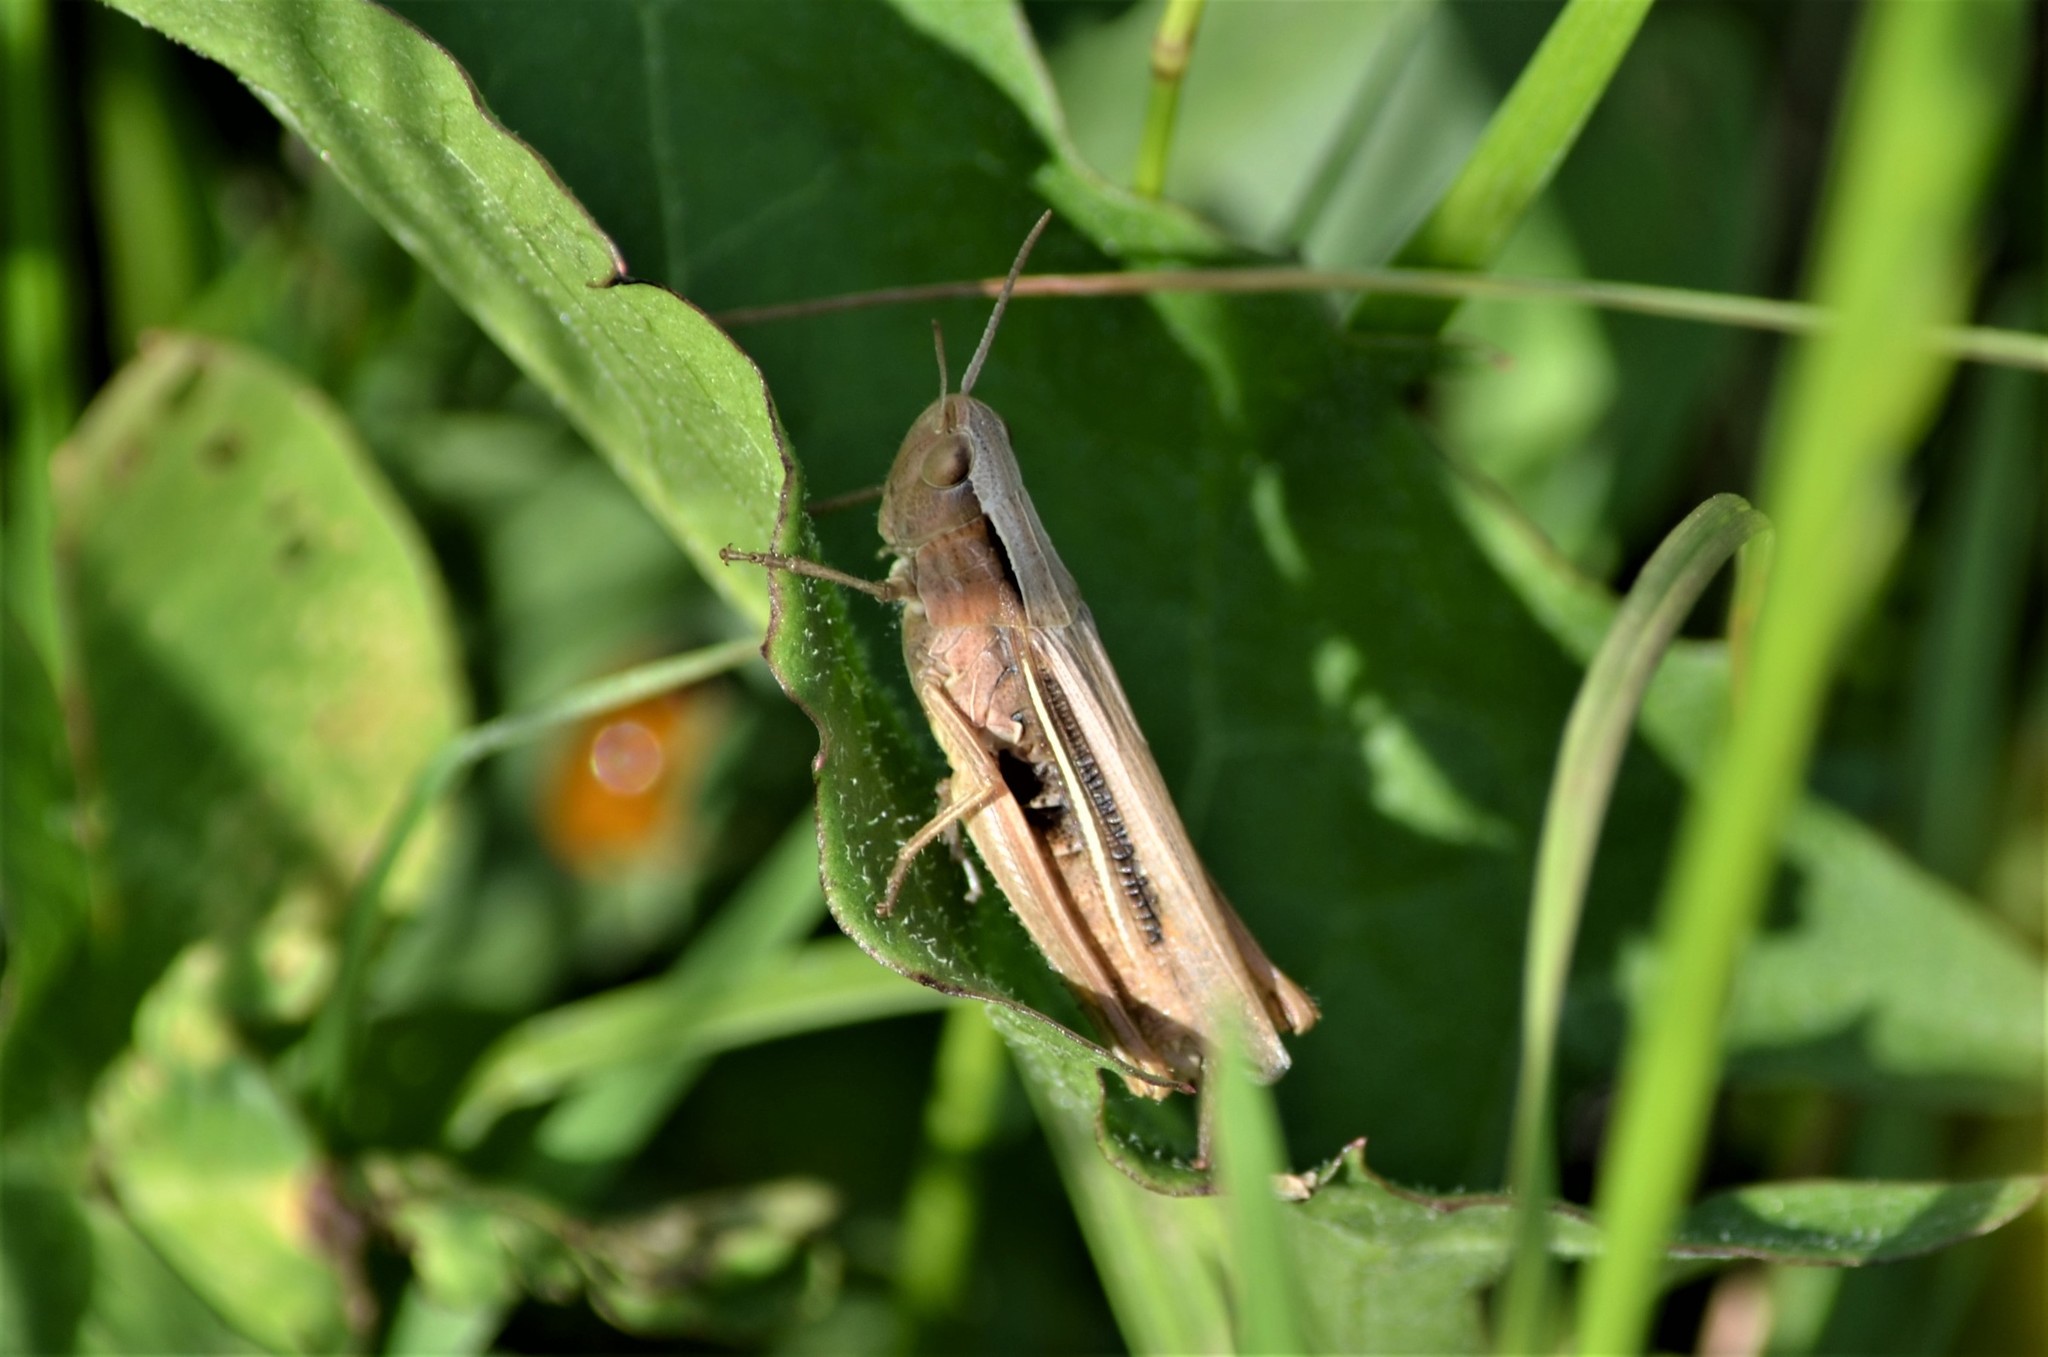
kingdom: Animalia
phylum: Arthropoda
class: Insecta
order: Orthoptera
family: Acrididae
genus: Chorthippus
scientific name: Chorthippus albomarginatus
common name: Lesser marsh grasshopper
